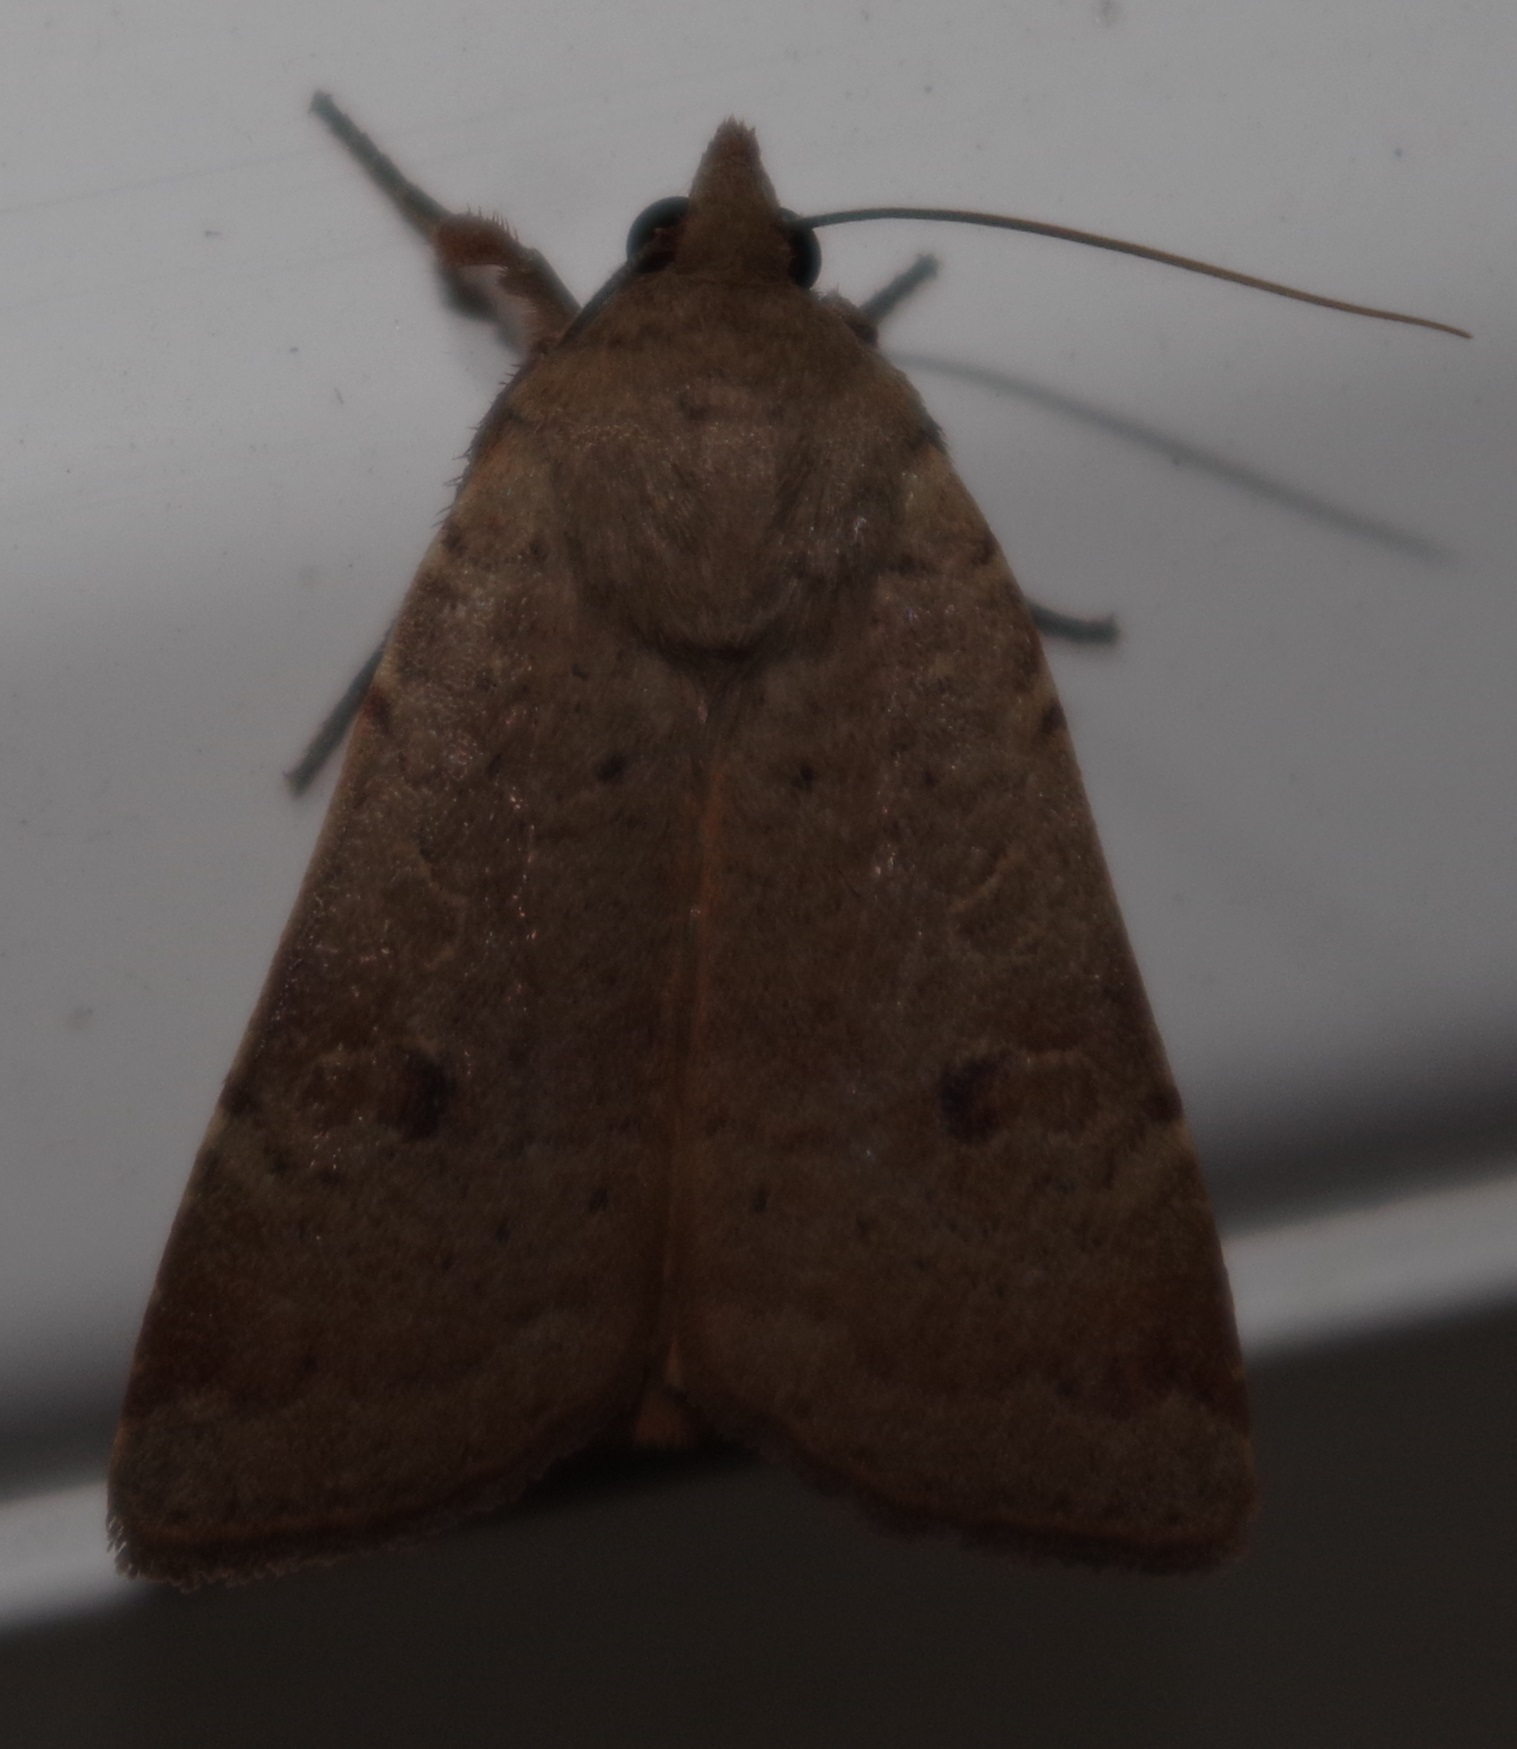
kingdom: Animalia
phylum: Arthropoda
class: Insecta
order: Lepidoptera
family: Noctuidae
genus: Noctua
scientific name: Noctua comes
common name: Lesser yellow underwing
